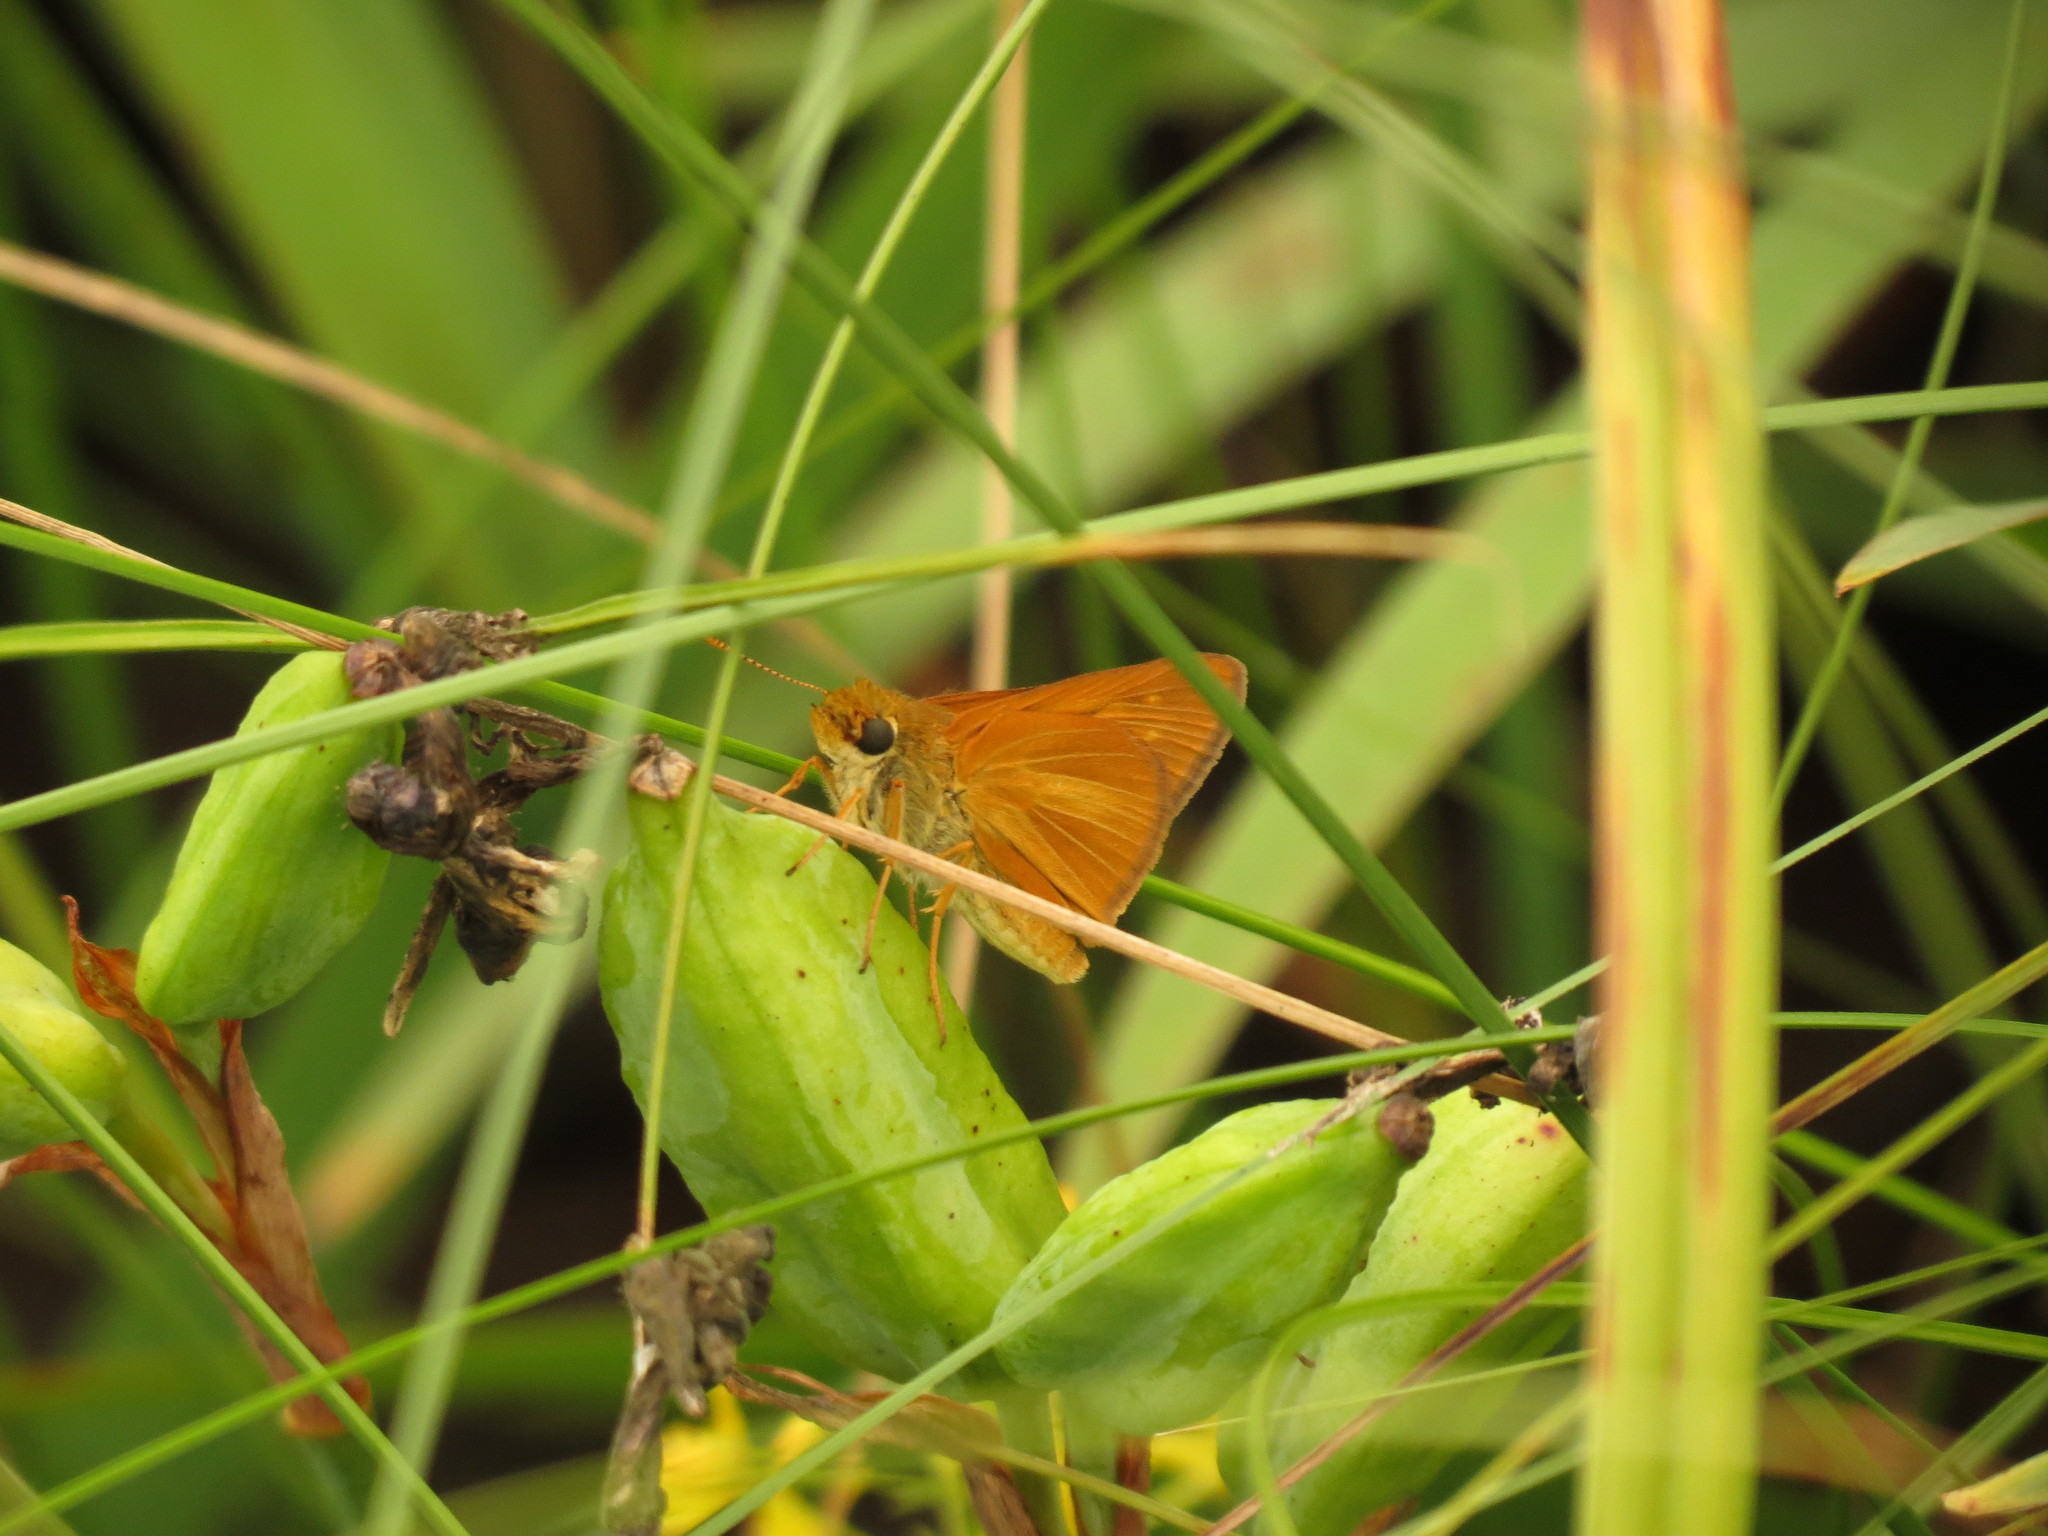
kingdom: Animalia
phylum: Arthropoda
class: Insecta
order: Lepidoptera
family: Hesperiidae
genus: Euphyes
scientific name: Euphyes dion
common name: Dion skipper
